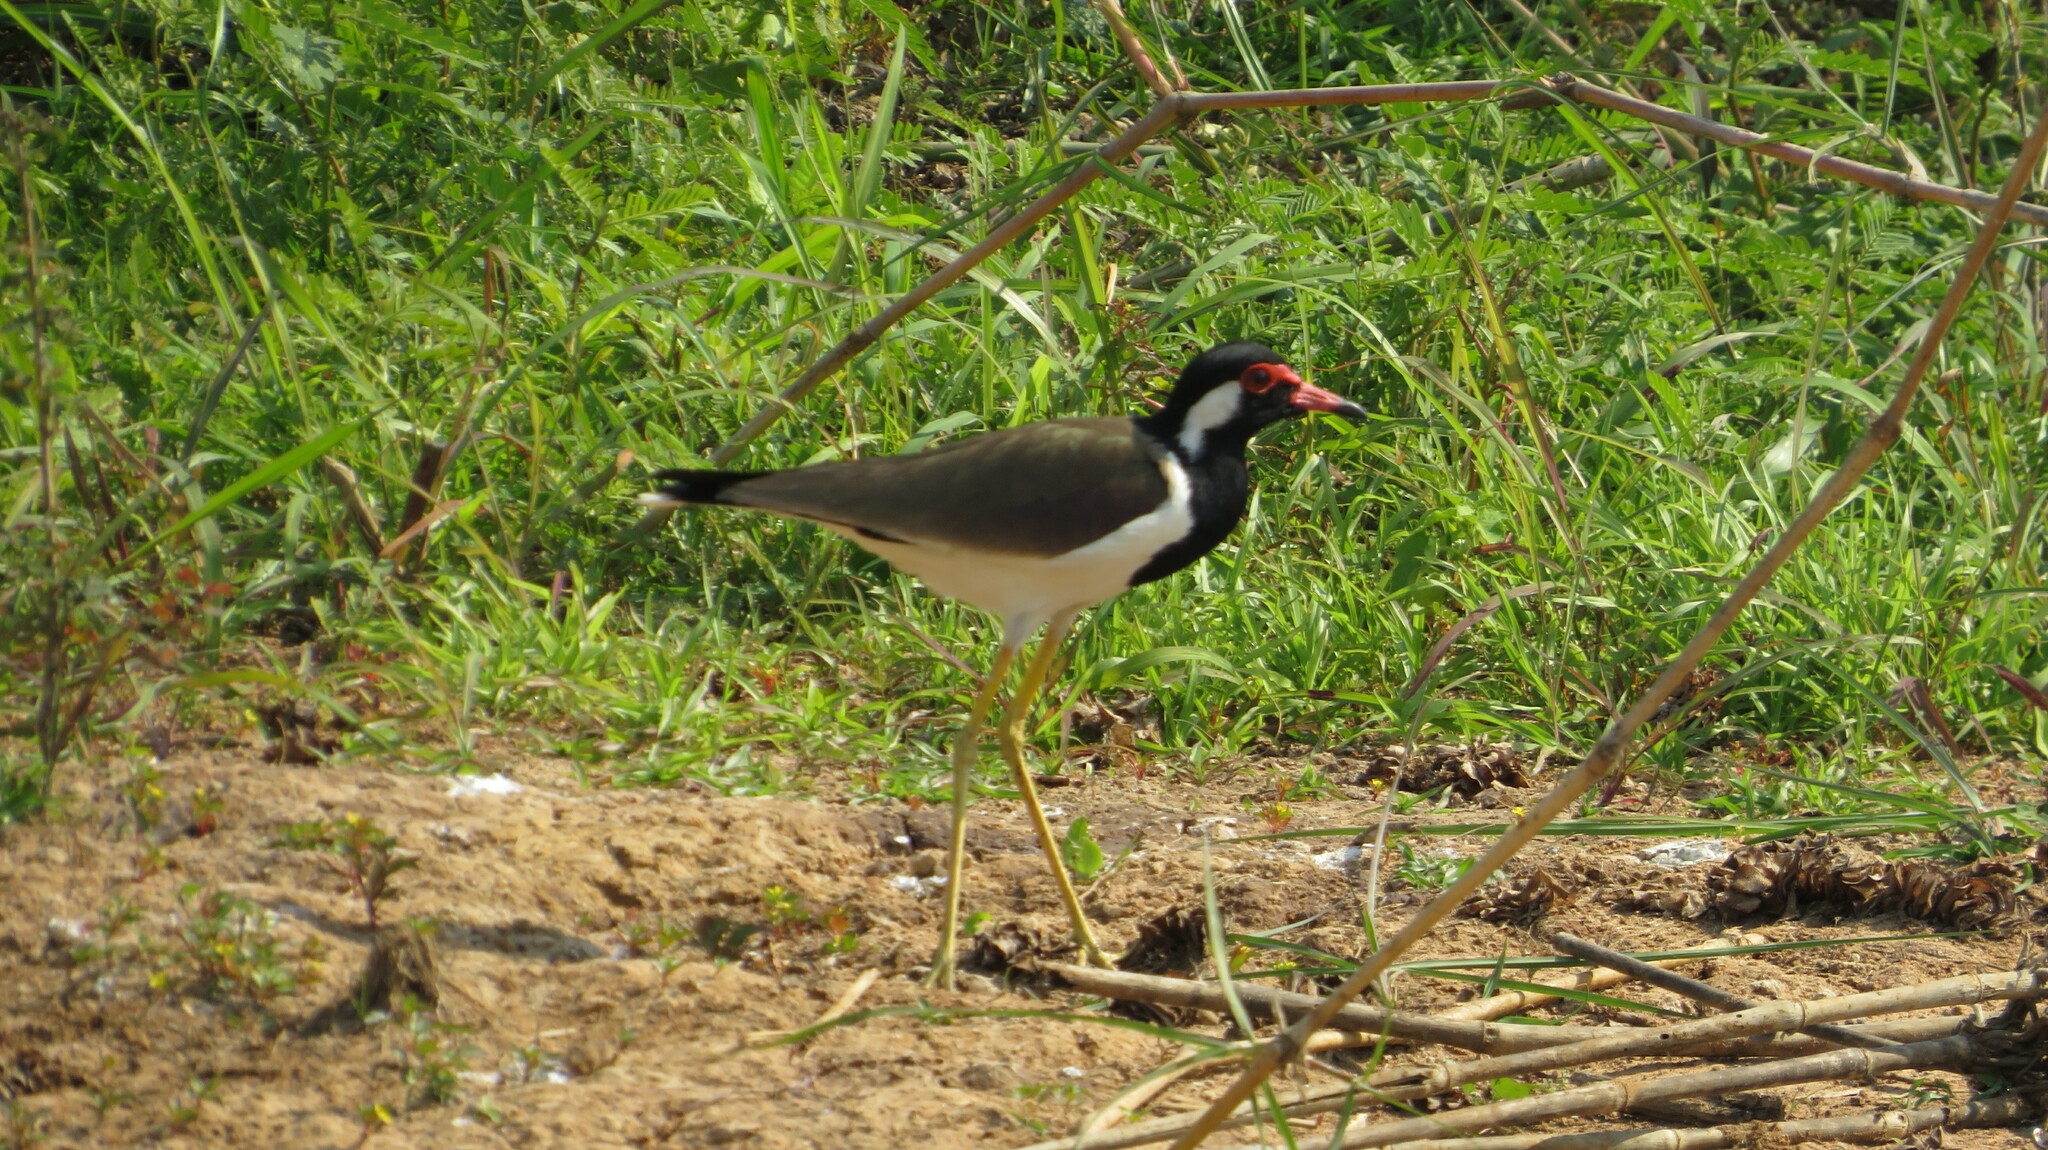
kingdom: Animalia
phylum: Chordata
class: Aves
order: Charadriiformes
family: Charadriidae
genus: Vanellus
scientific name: Vanellus indicus
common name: Red-wattled lapwing
